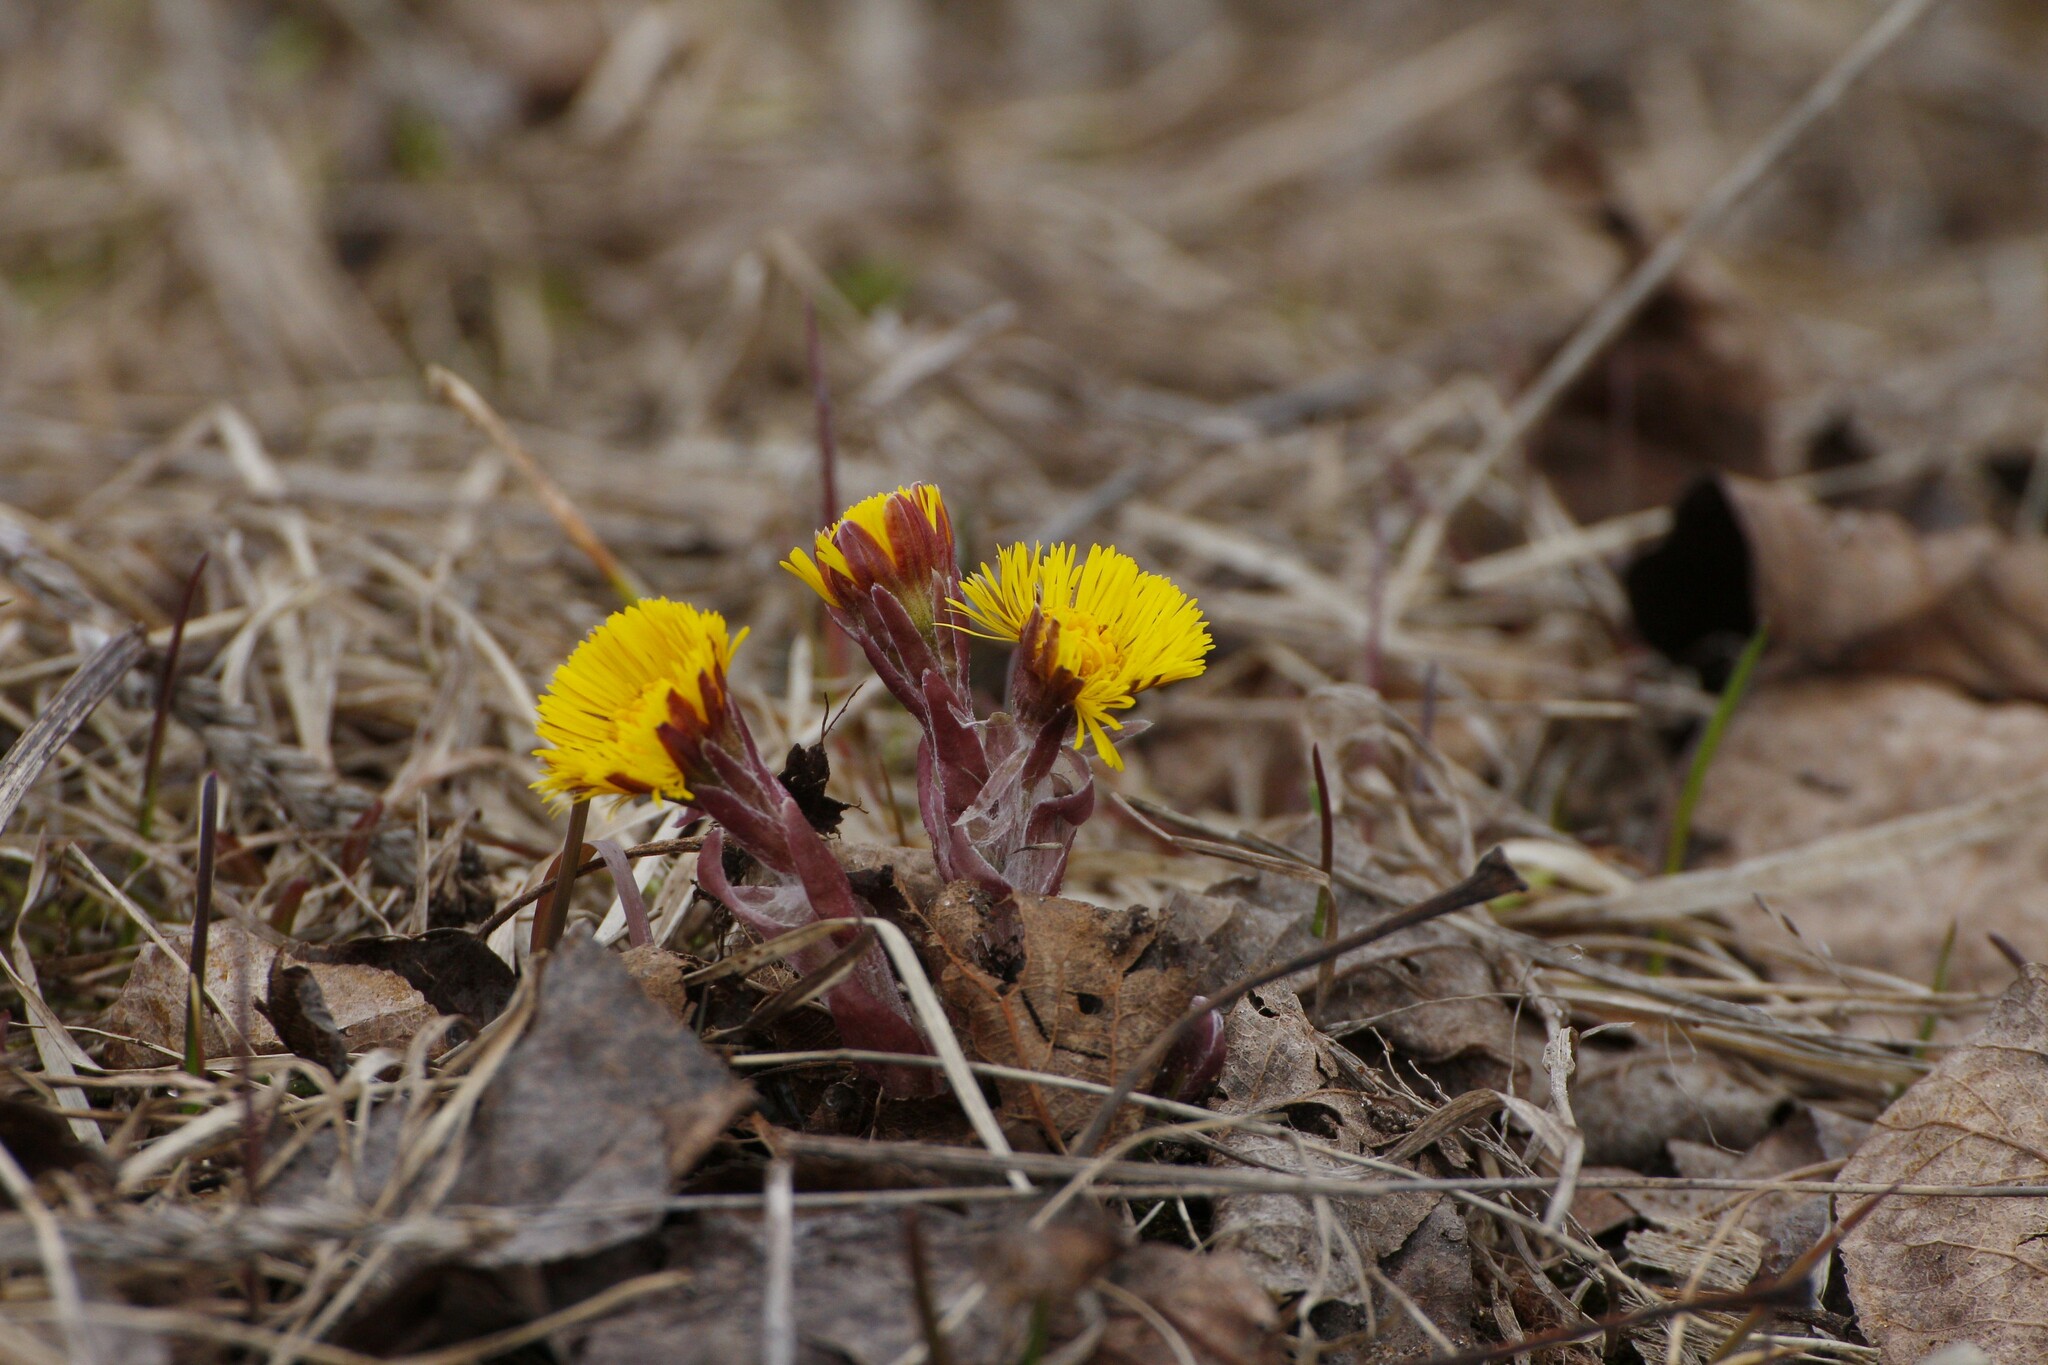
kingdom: Plantae
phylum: Tracheophyta
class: Magnoliopsida
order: Asterales
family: Asteraceae
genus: Tussilago
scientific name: Tussilago farfara
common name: Coltsfoot
